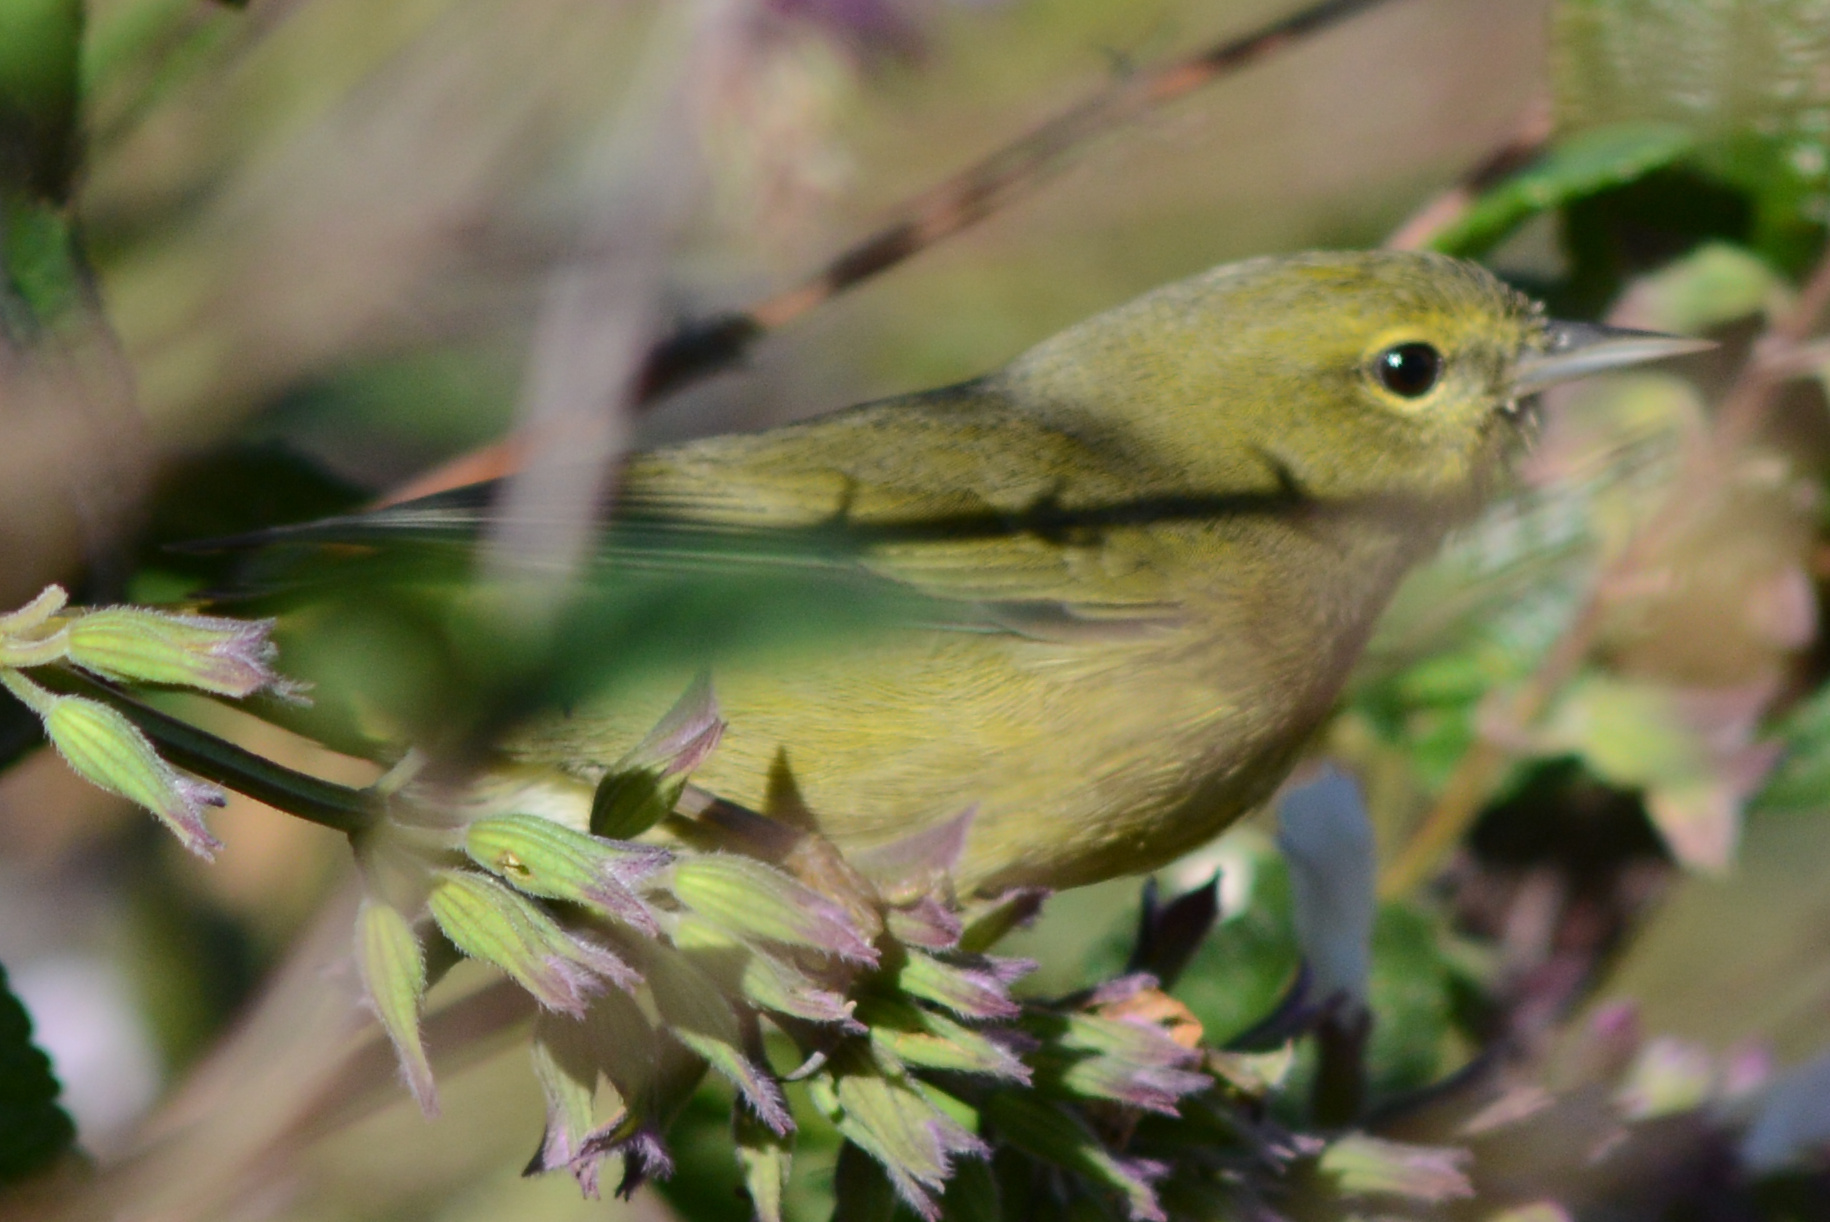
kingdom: Animalia
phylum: Chordata
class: Aves
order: Passeriformes
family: Parulidae
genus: Leiothlypis
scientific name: Leiothlypis celata
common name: Orange-crowned warbler
